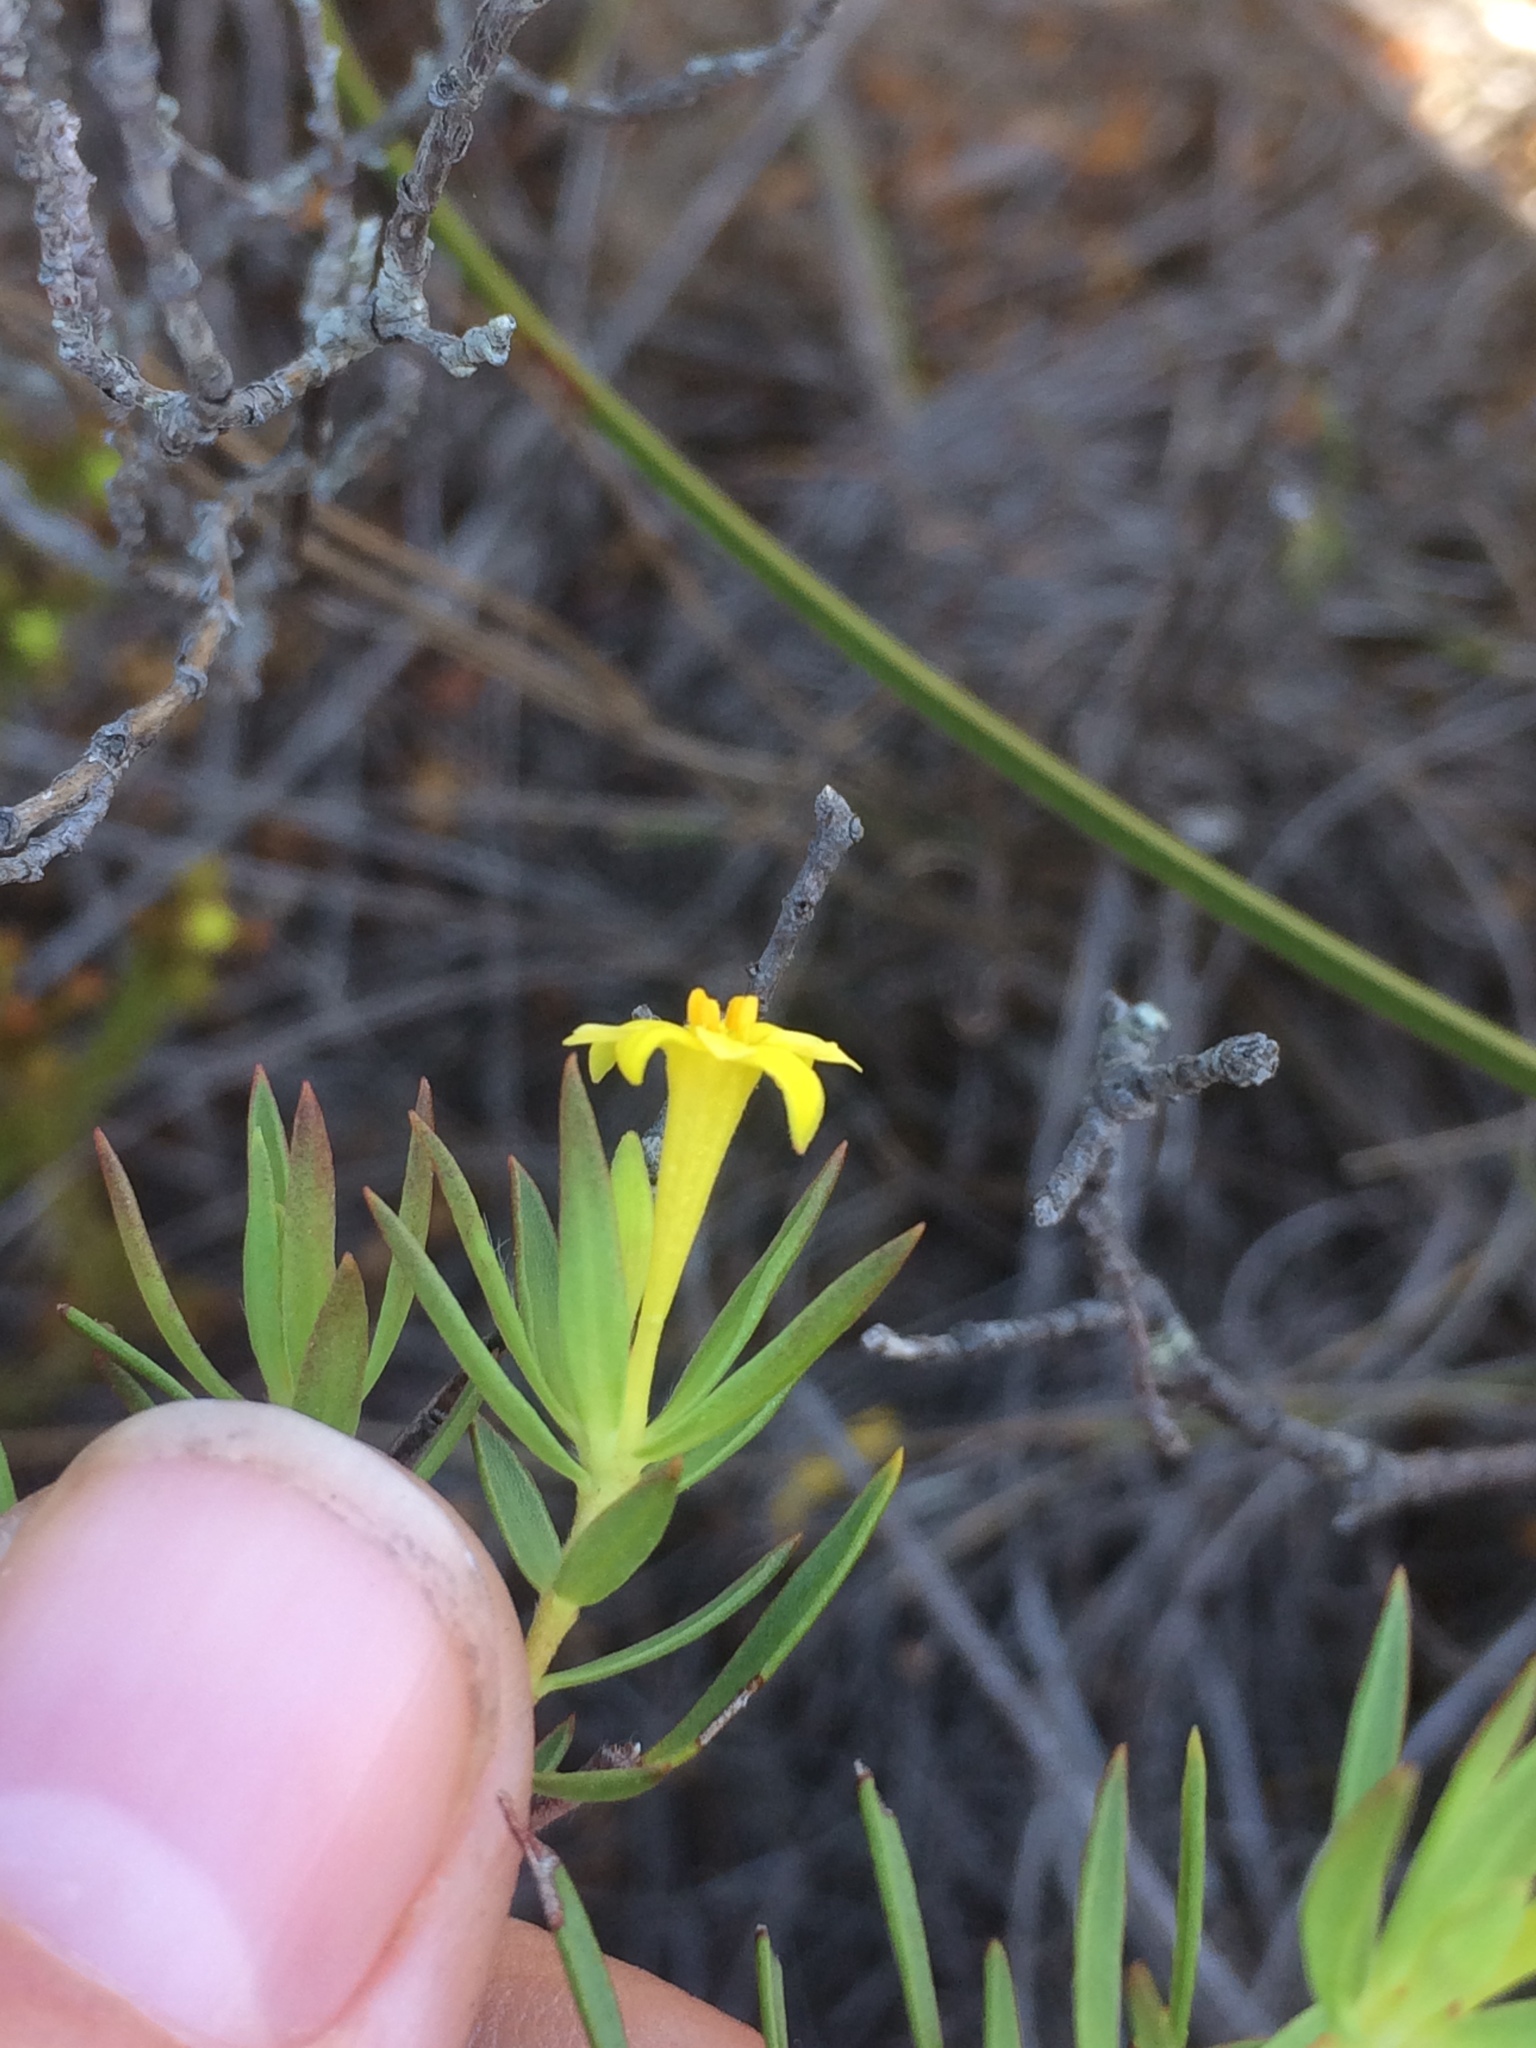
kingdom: Plantae
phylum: Tracheophyta
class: Magnoliopsida
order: Malvales
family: Thymelaeaceae
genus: Gnidia
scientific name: Gnidia juniperifolia
